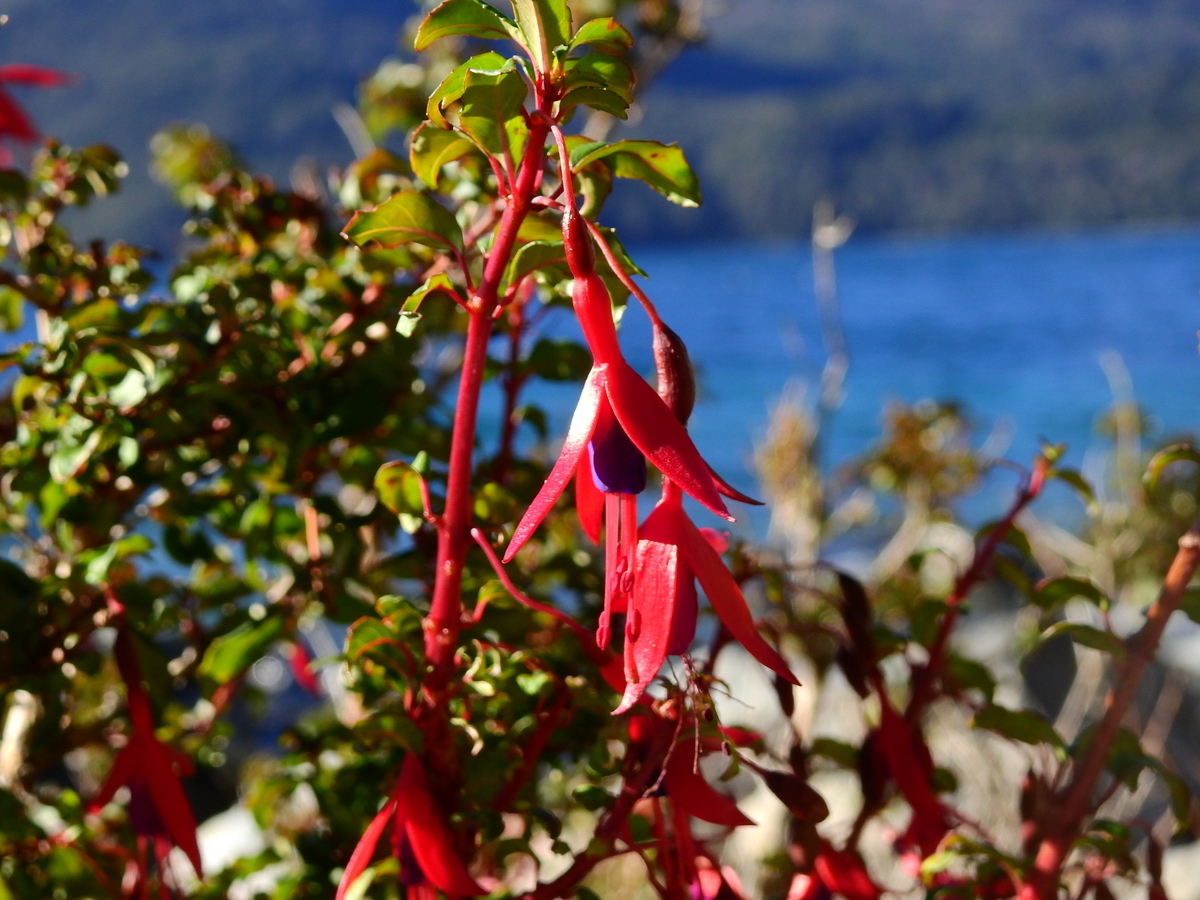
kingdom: Plantae
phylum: Tracheophyta
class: Magnoliopsida
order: Myrtales
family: Onagraceae
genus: Fuchsia
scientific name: Fuchsia magellanica
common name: Hardy fuchsia
